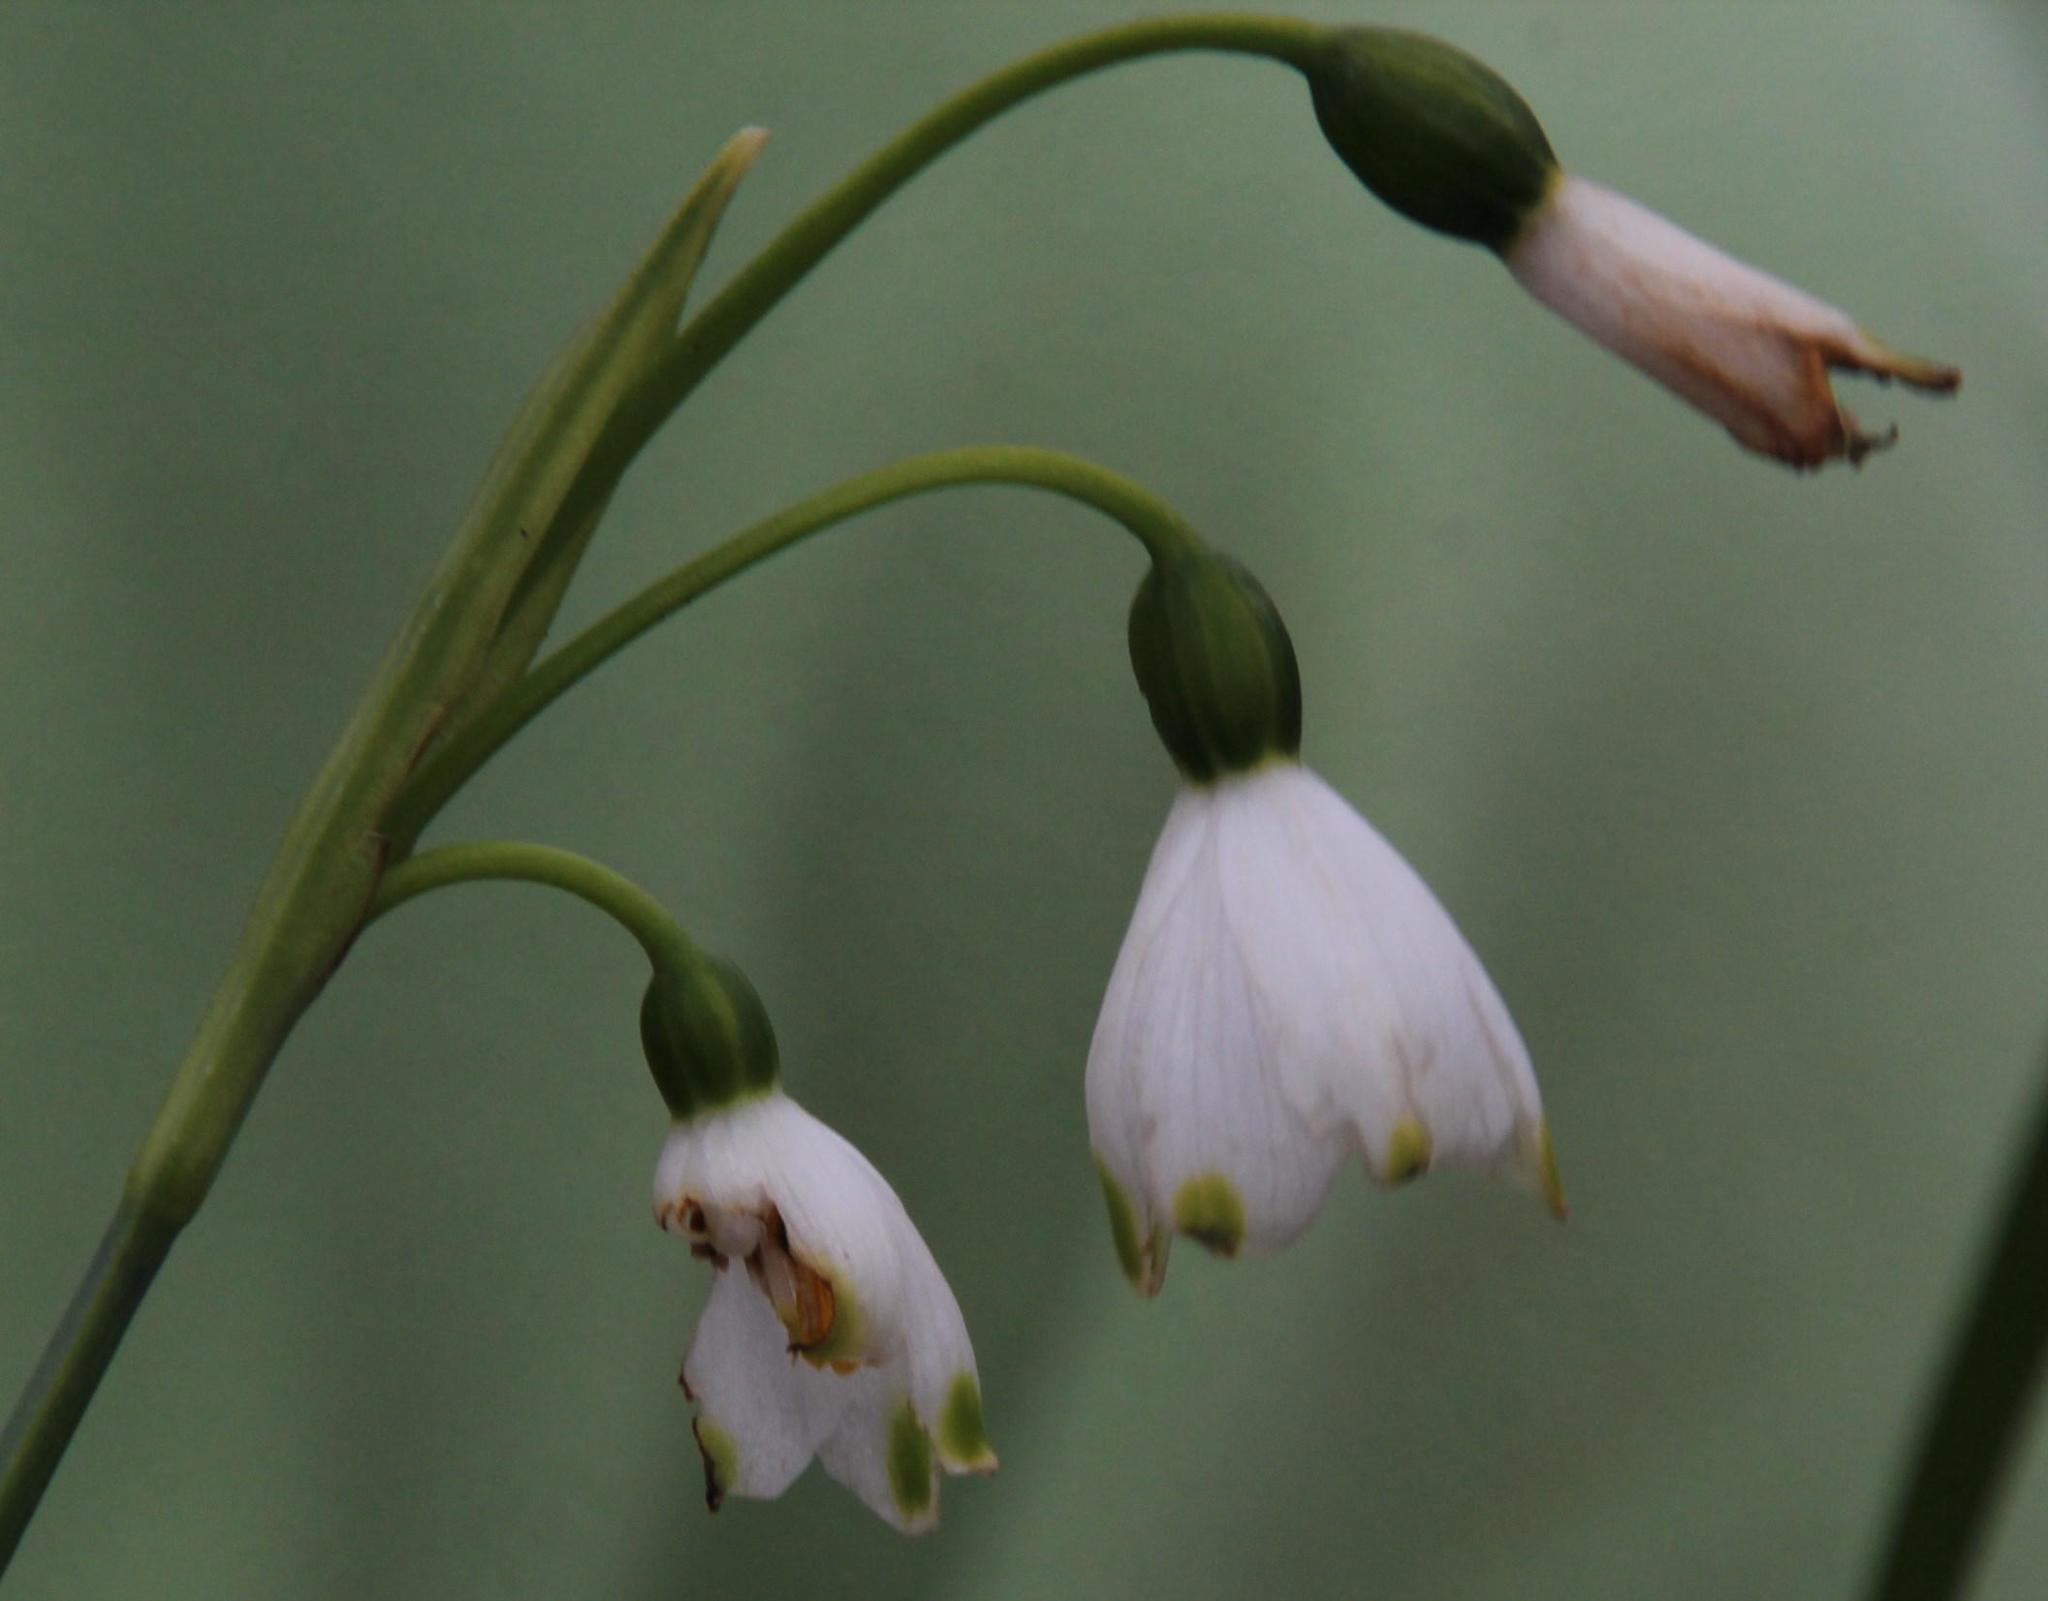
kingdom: Plantae
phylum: Tracheophyta
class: Liliopsida
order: Asparagales
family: Amaryllidaceae
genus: Leucojum
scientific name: Leucojum aestivum
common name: Summer snowflake
